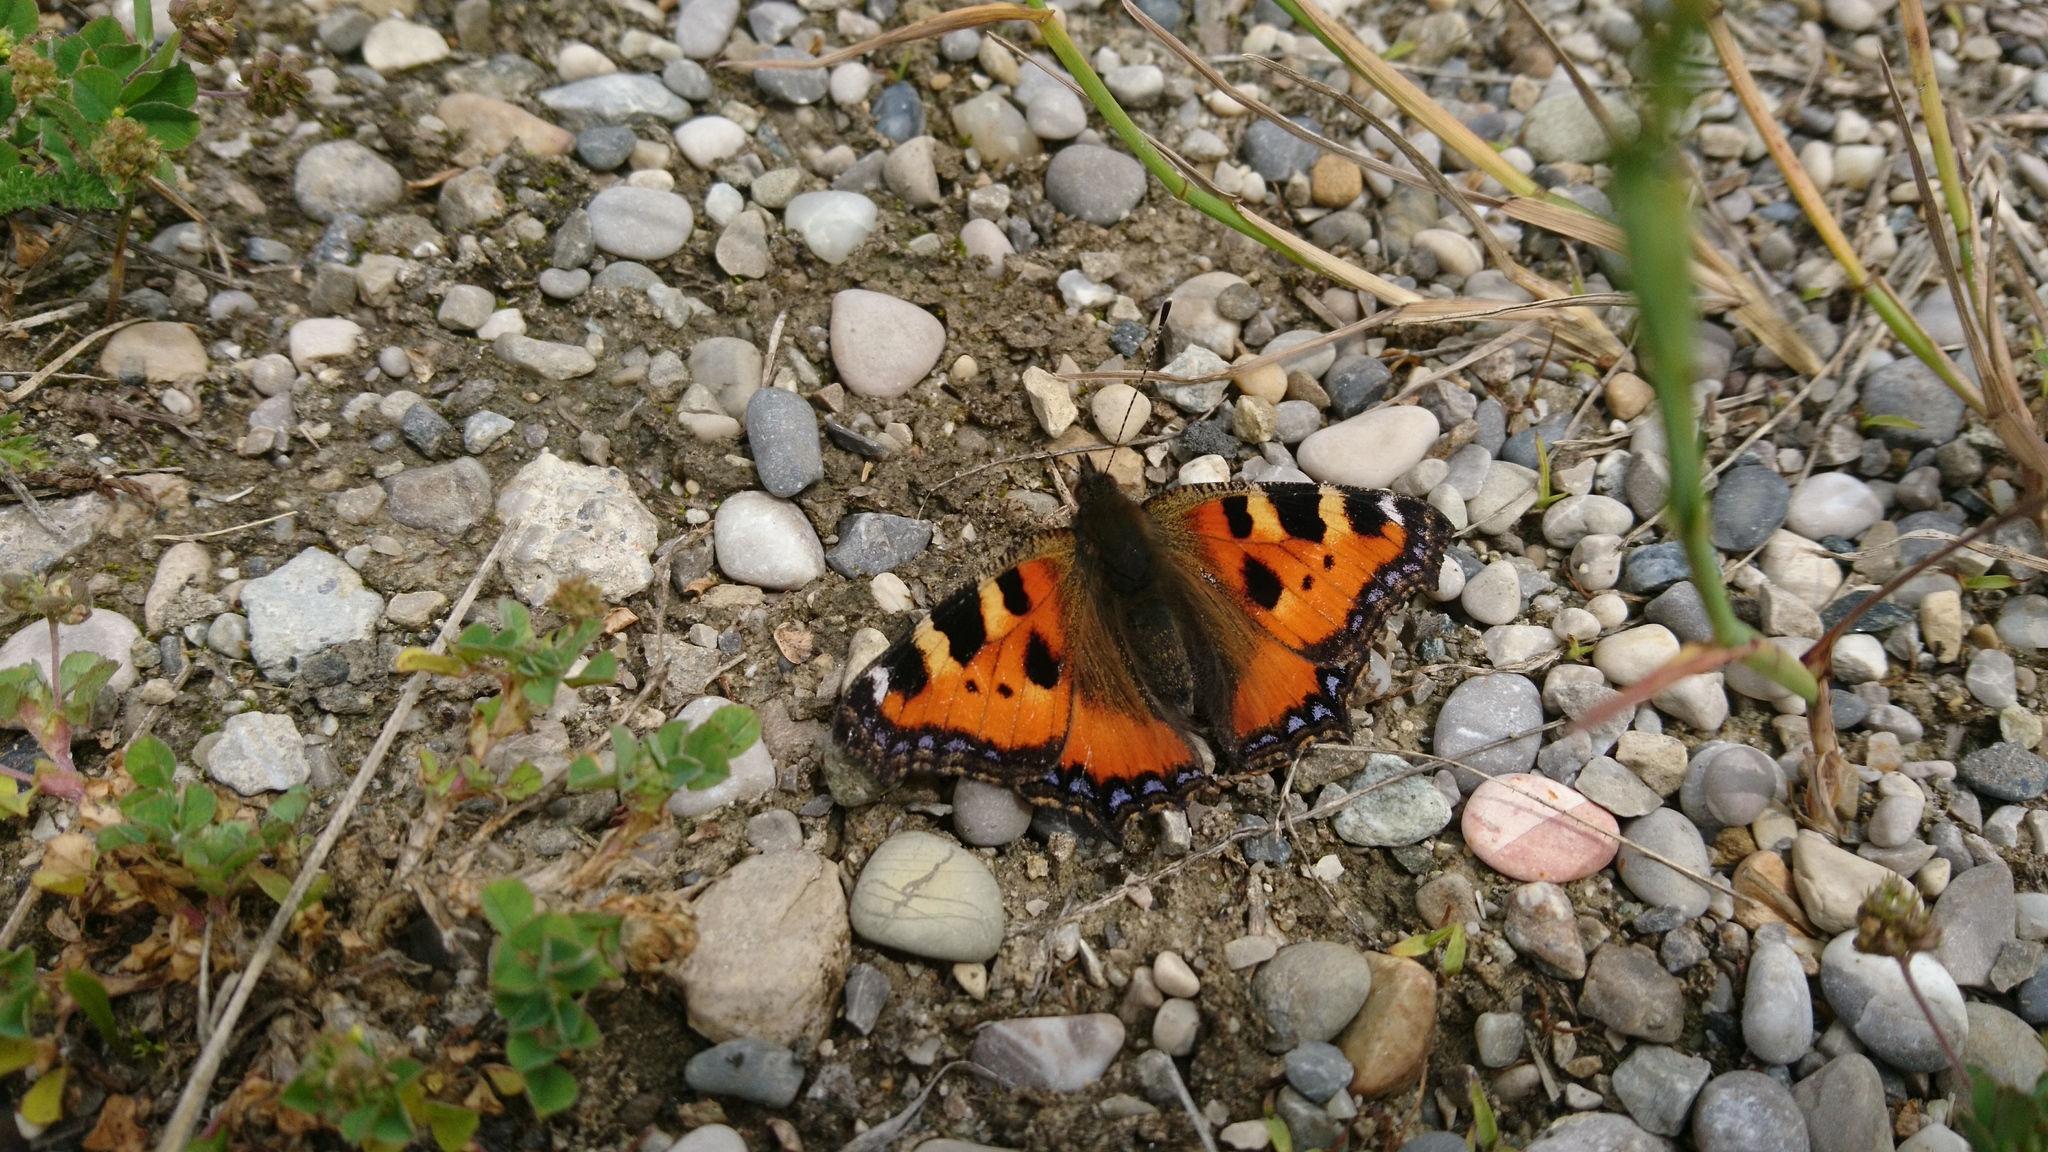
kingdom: Animalia
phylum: Arthropoda
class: Insecta
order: Lepidoptera
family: Nymphalidae
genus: Aglais
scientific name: Aglais urticae
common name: Small tortoiseshell
